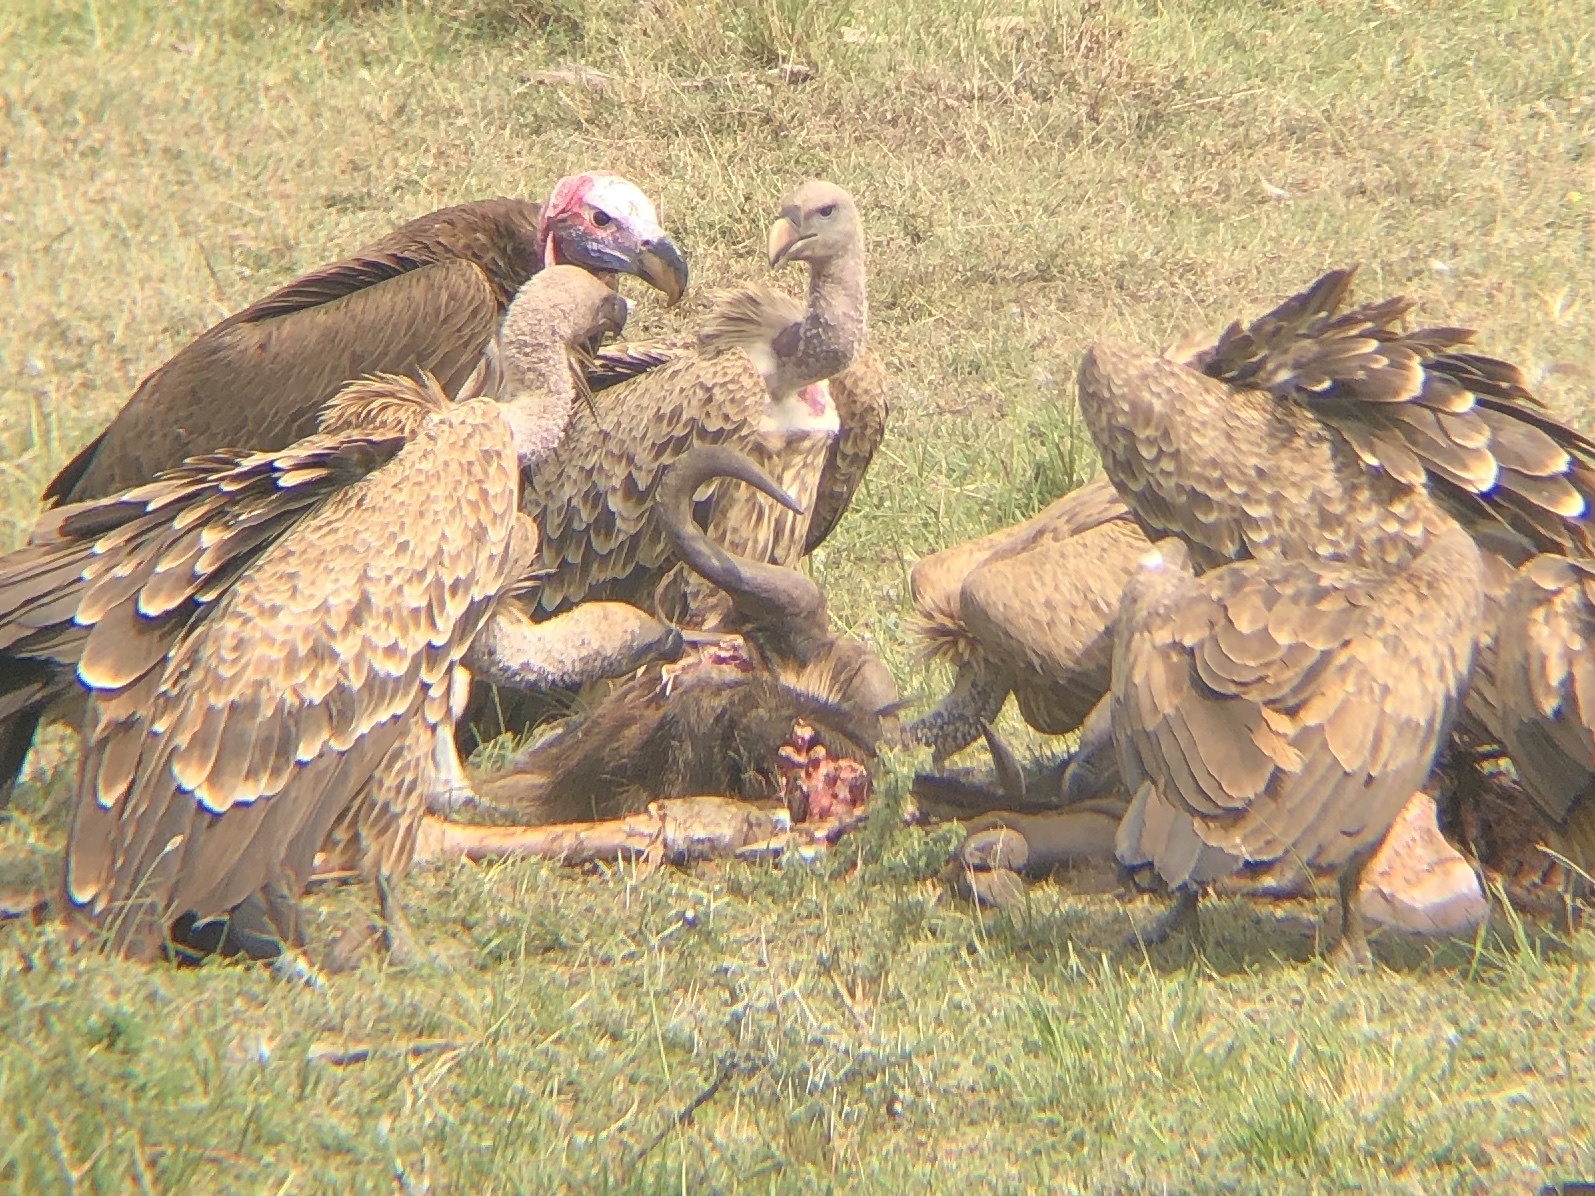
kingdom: Animalia
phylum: Chordata
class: Mammalia
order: Artiodactyla
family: Bovidae
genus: Connochaetes
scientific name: Connochaetes taurinus
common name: Blue wildebeest
